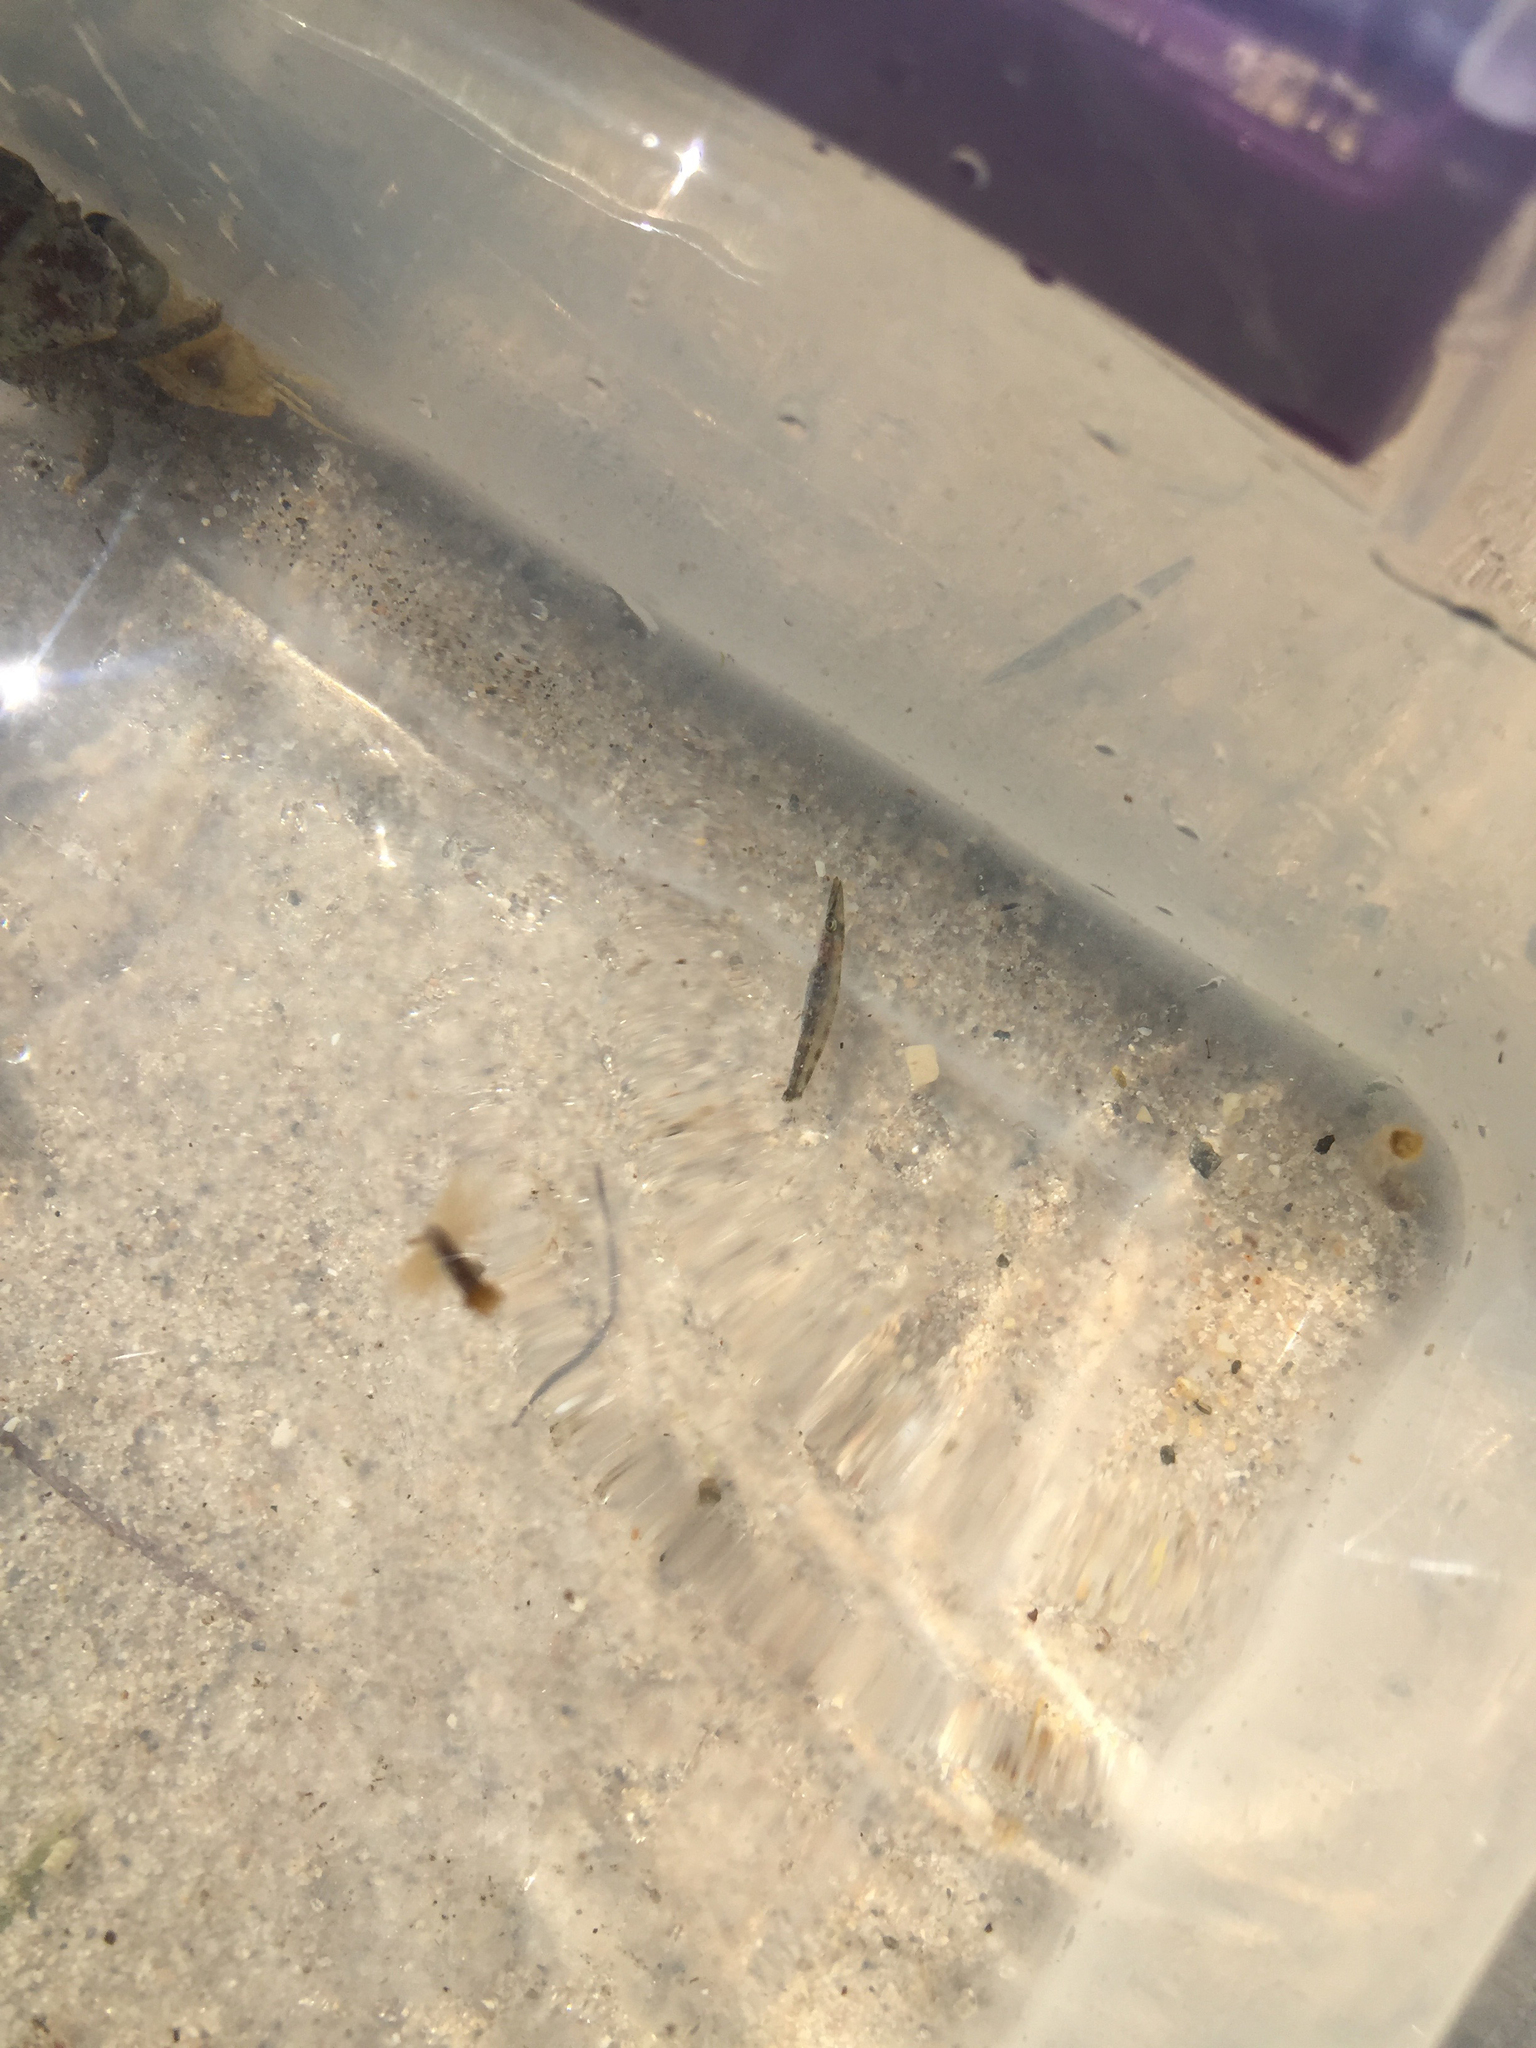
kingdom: Animalia
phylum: Chordata
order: Perciformes
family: Sphyraenidae
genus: Sphyraena
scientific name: Sphyraena barracuda
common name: Great barracuda
